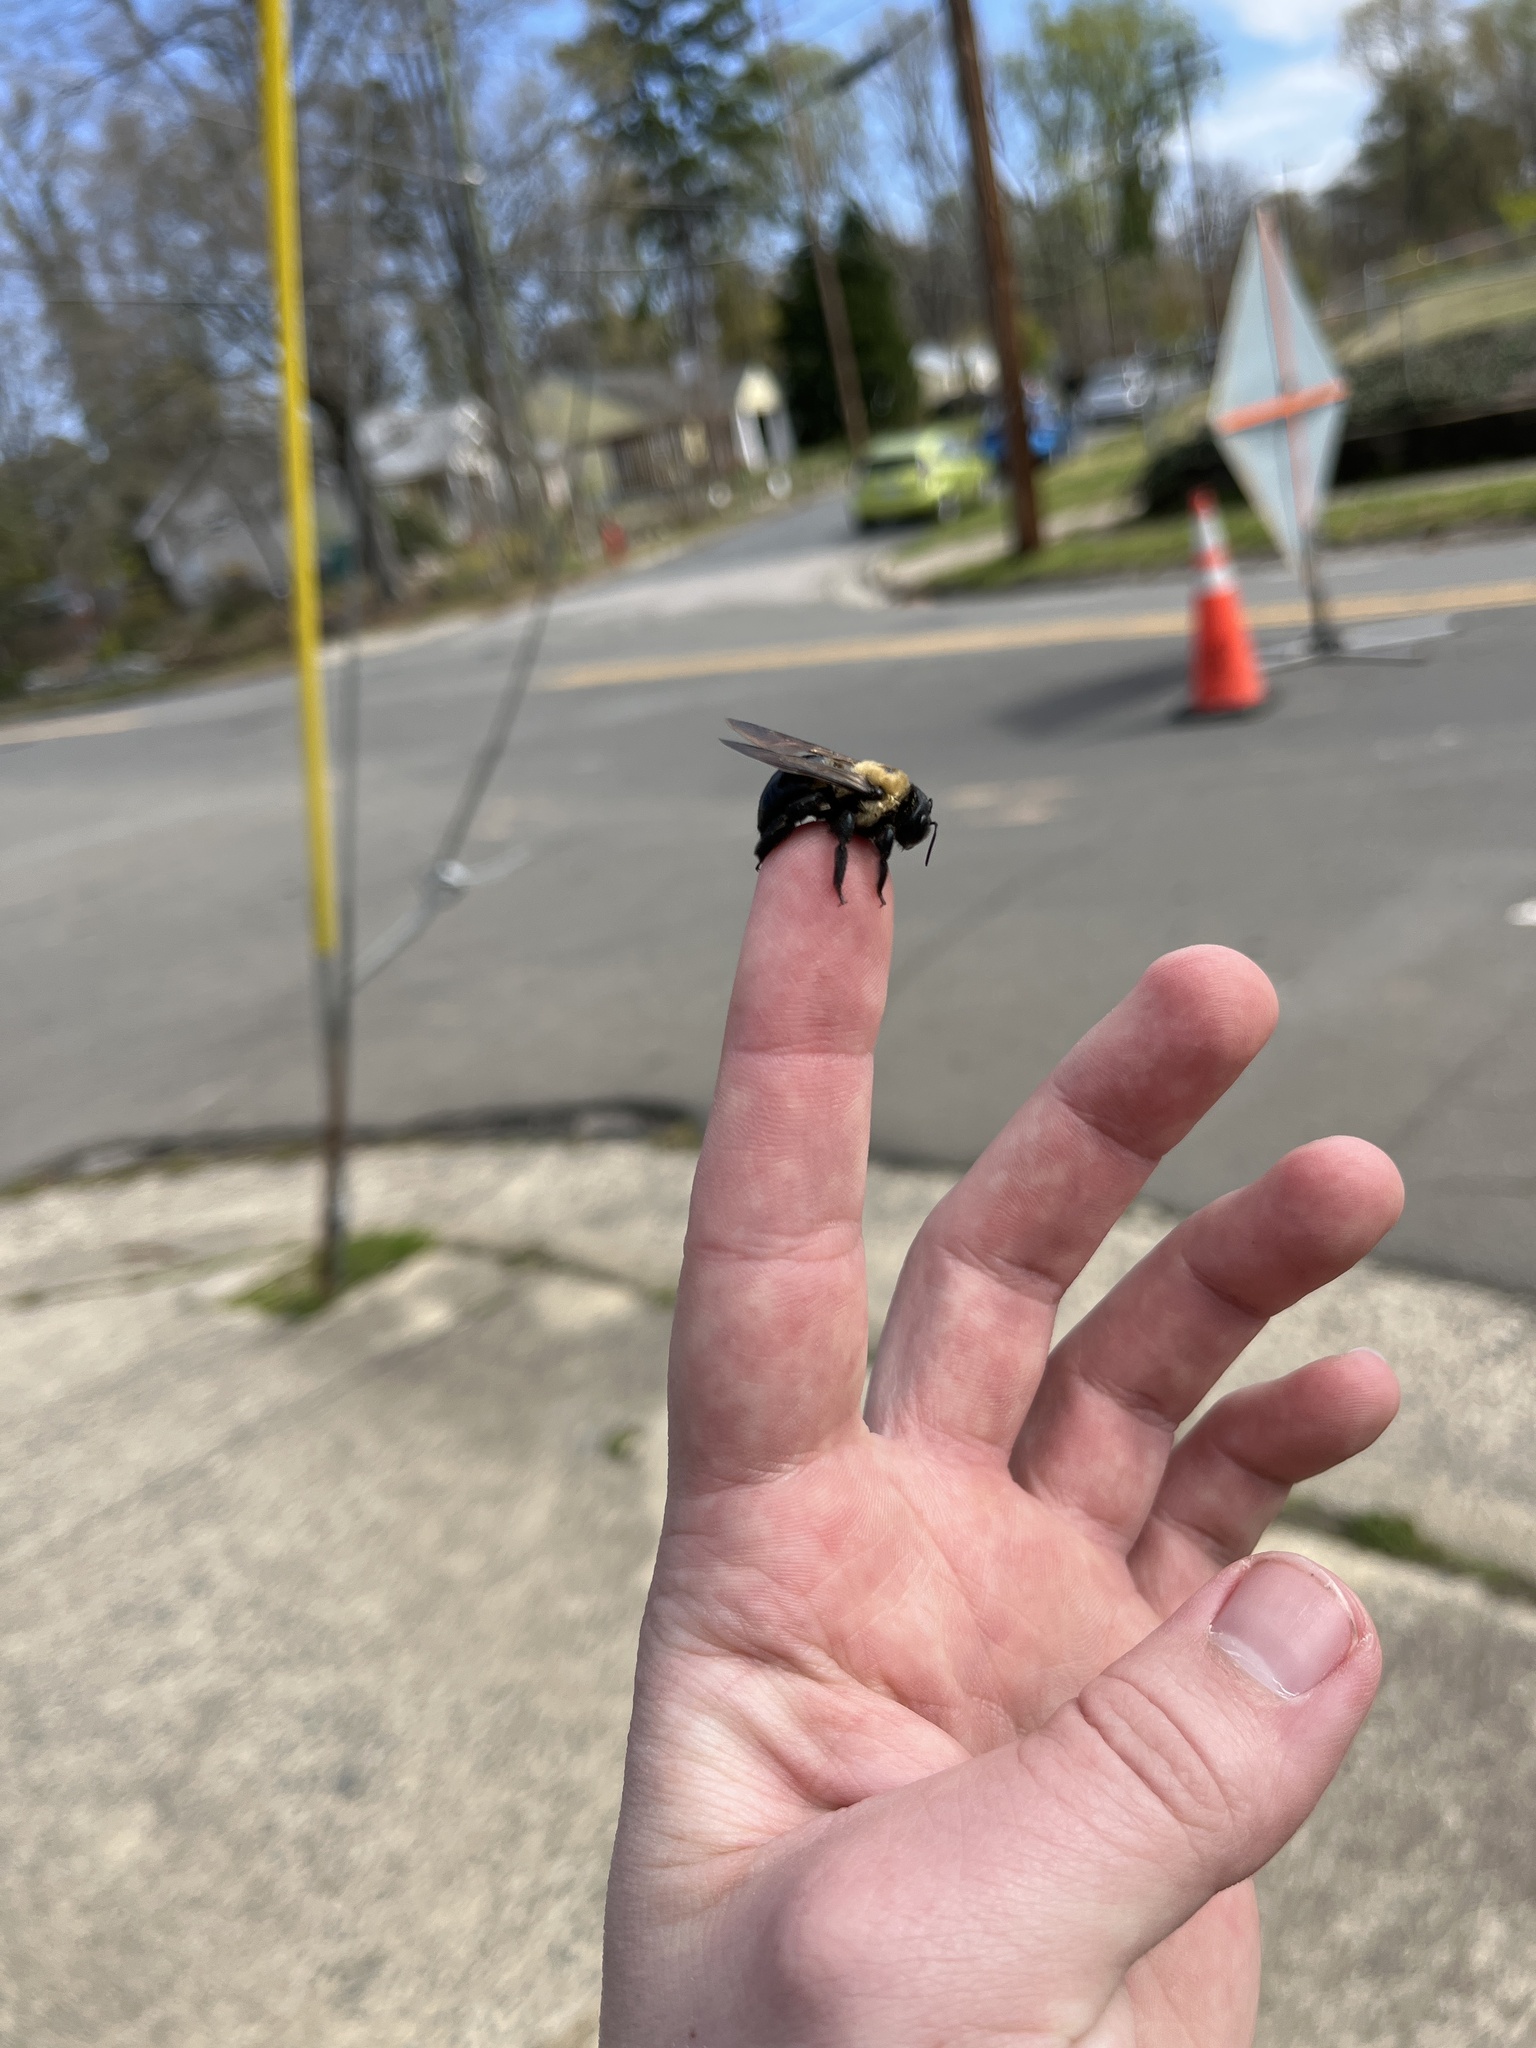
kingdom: Animalia
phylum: Arthropoda
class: Insecta
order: Hymenoptera
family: Apidae
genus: Xylocopa
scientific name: Xylocopa virginica
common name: Carpenter bee
